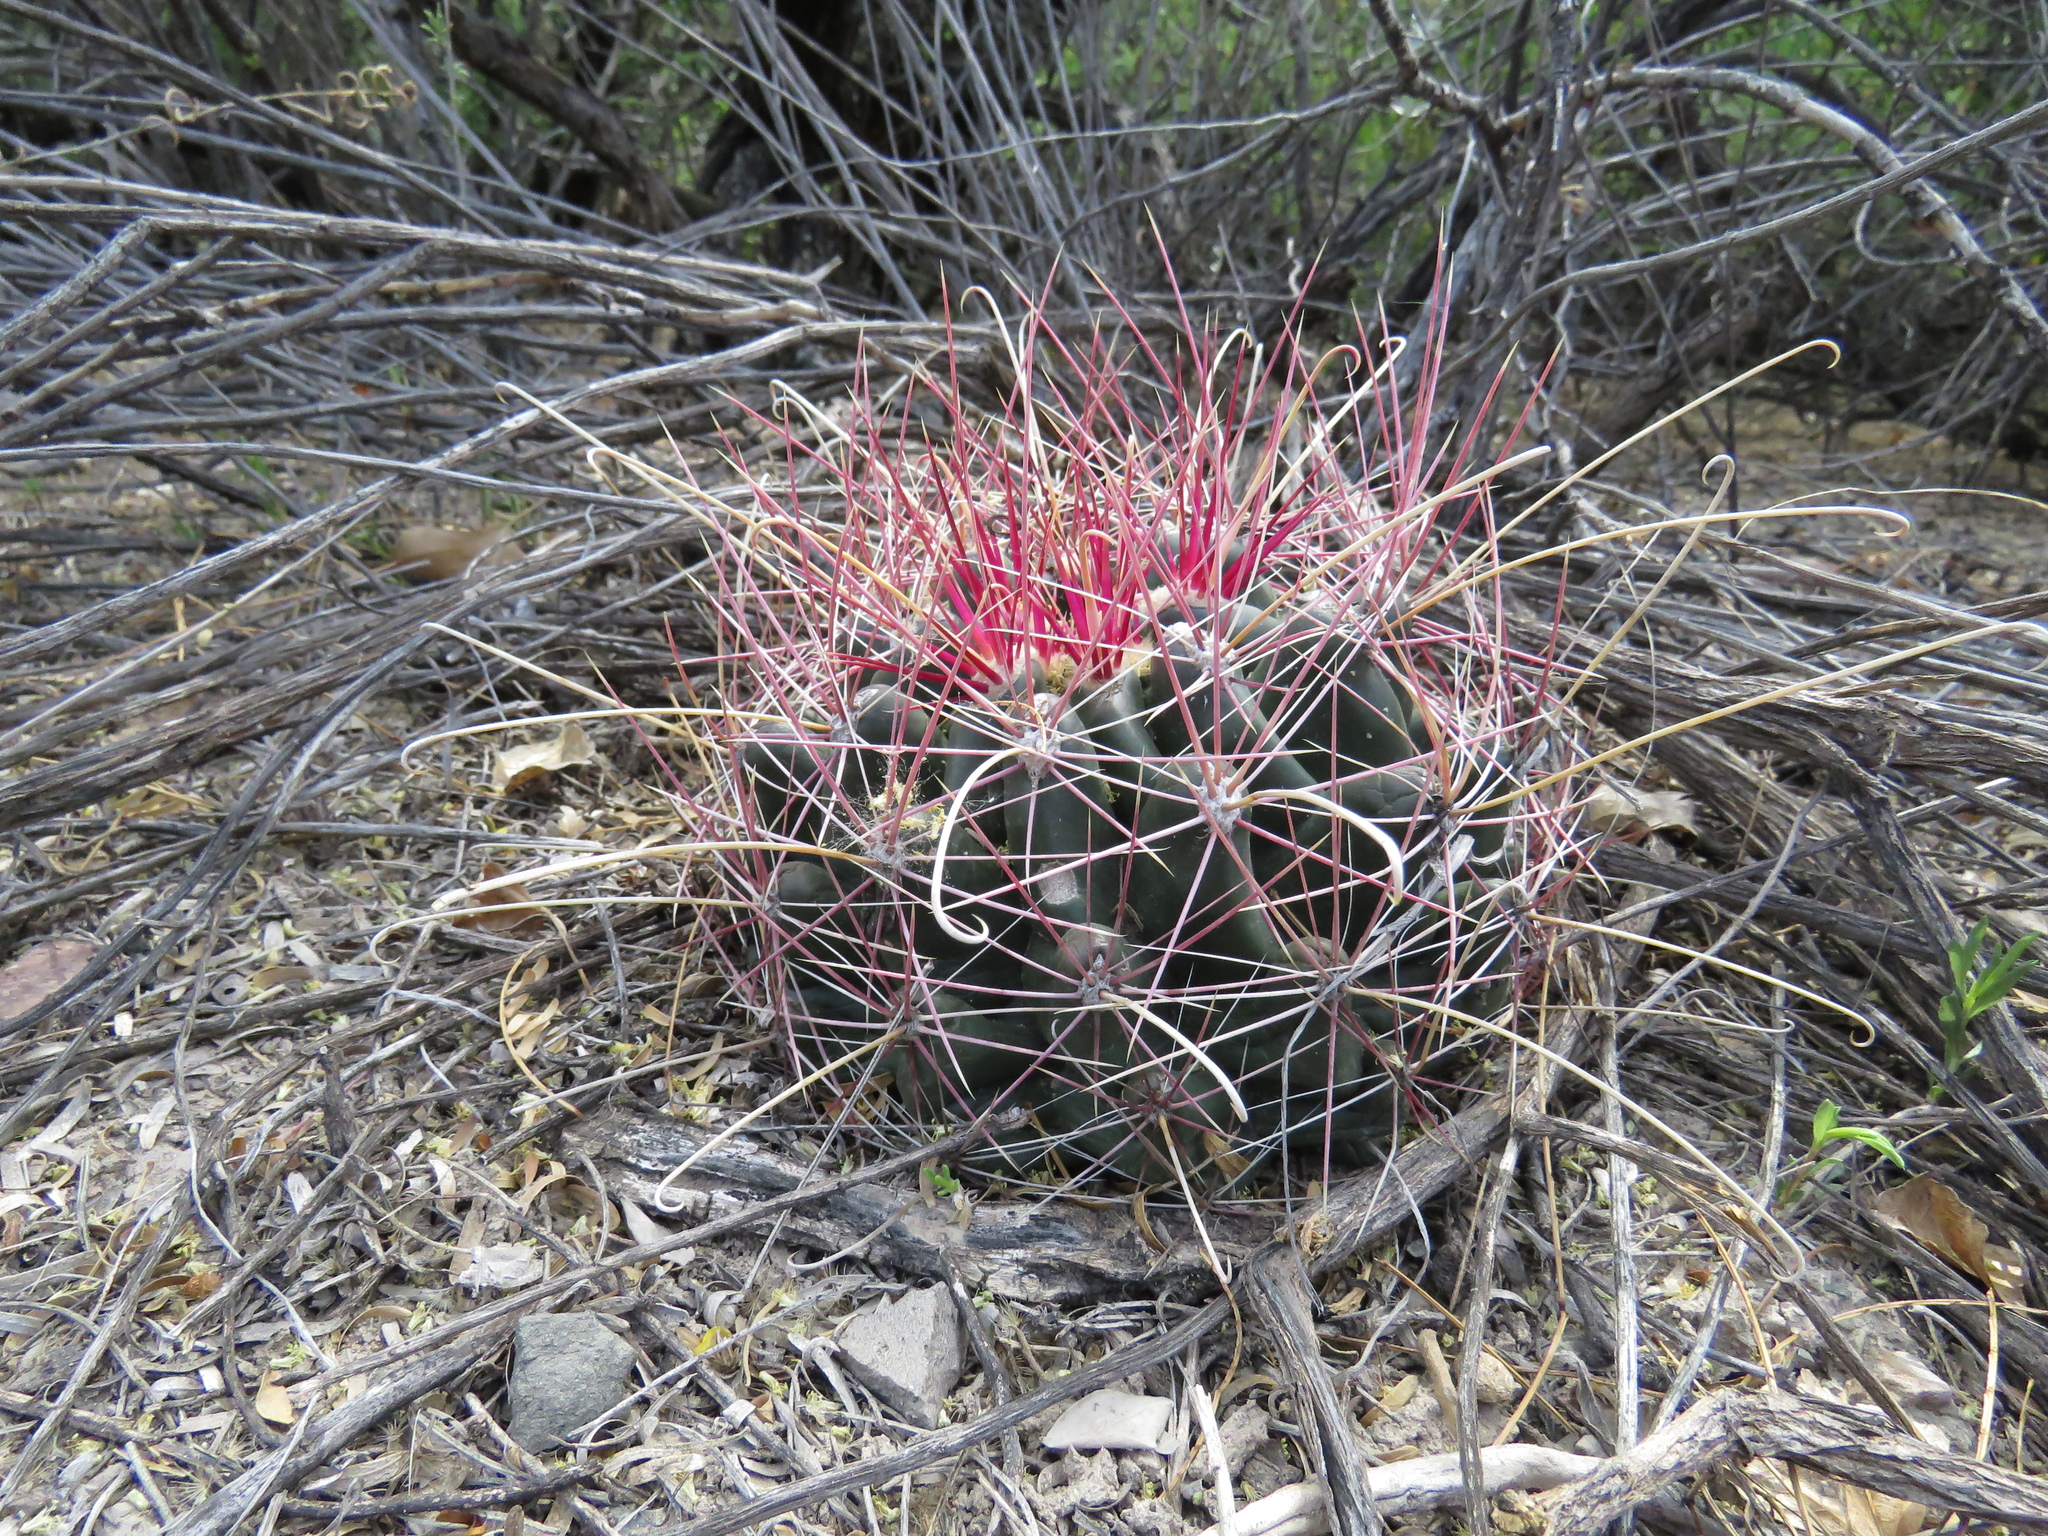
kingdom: Plantae
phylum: Tracheophyta
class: Magnoliopsida
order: Caryophyllales
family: Cactaceae
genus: Bisnaga
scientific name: Bisnaga hamatacantha
